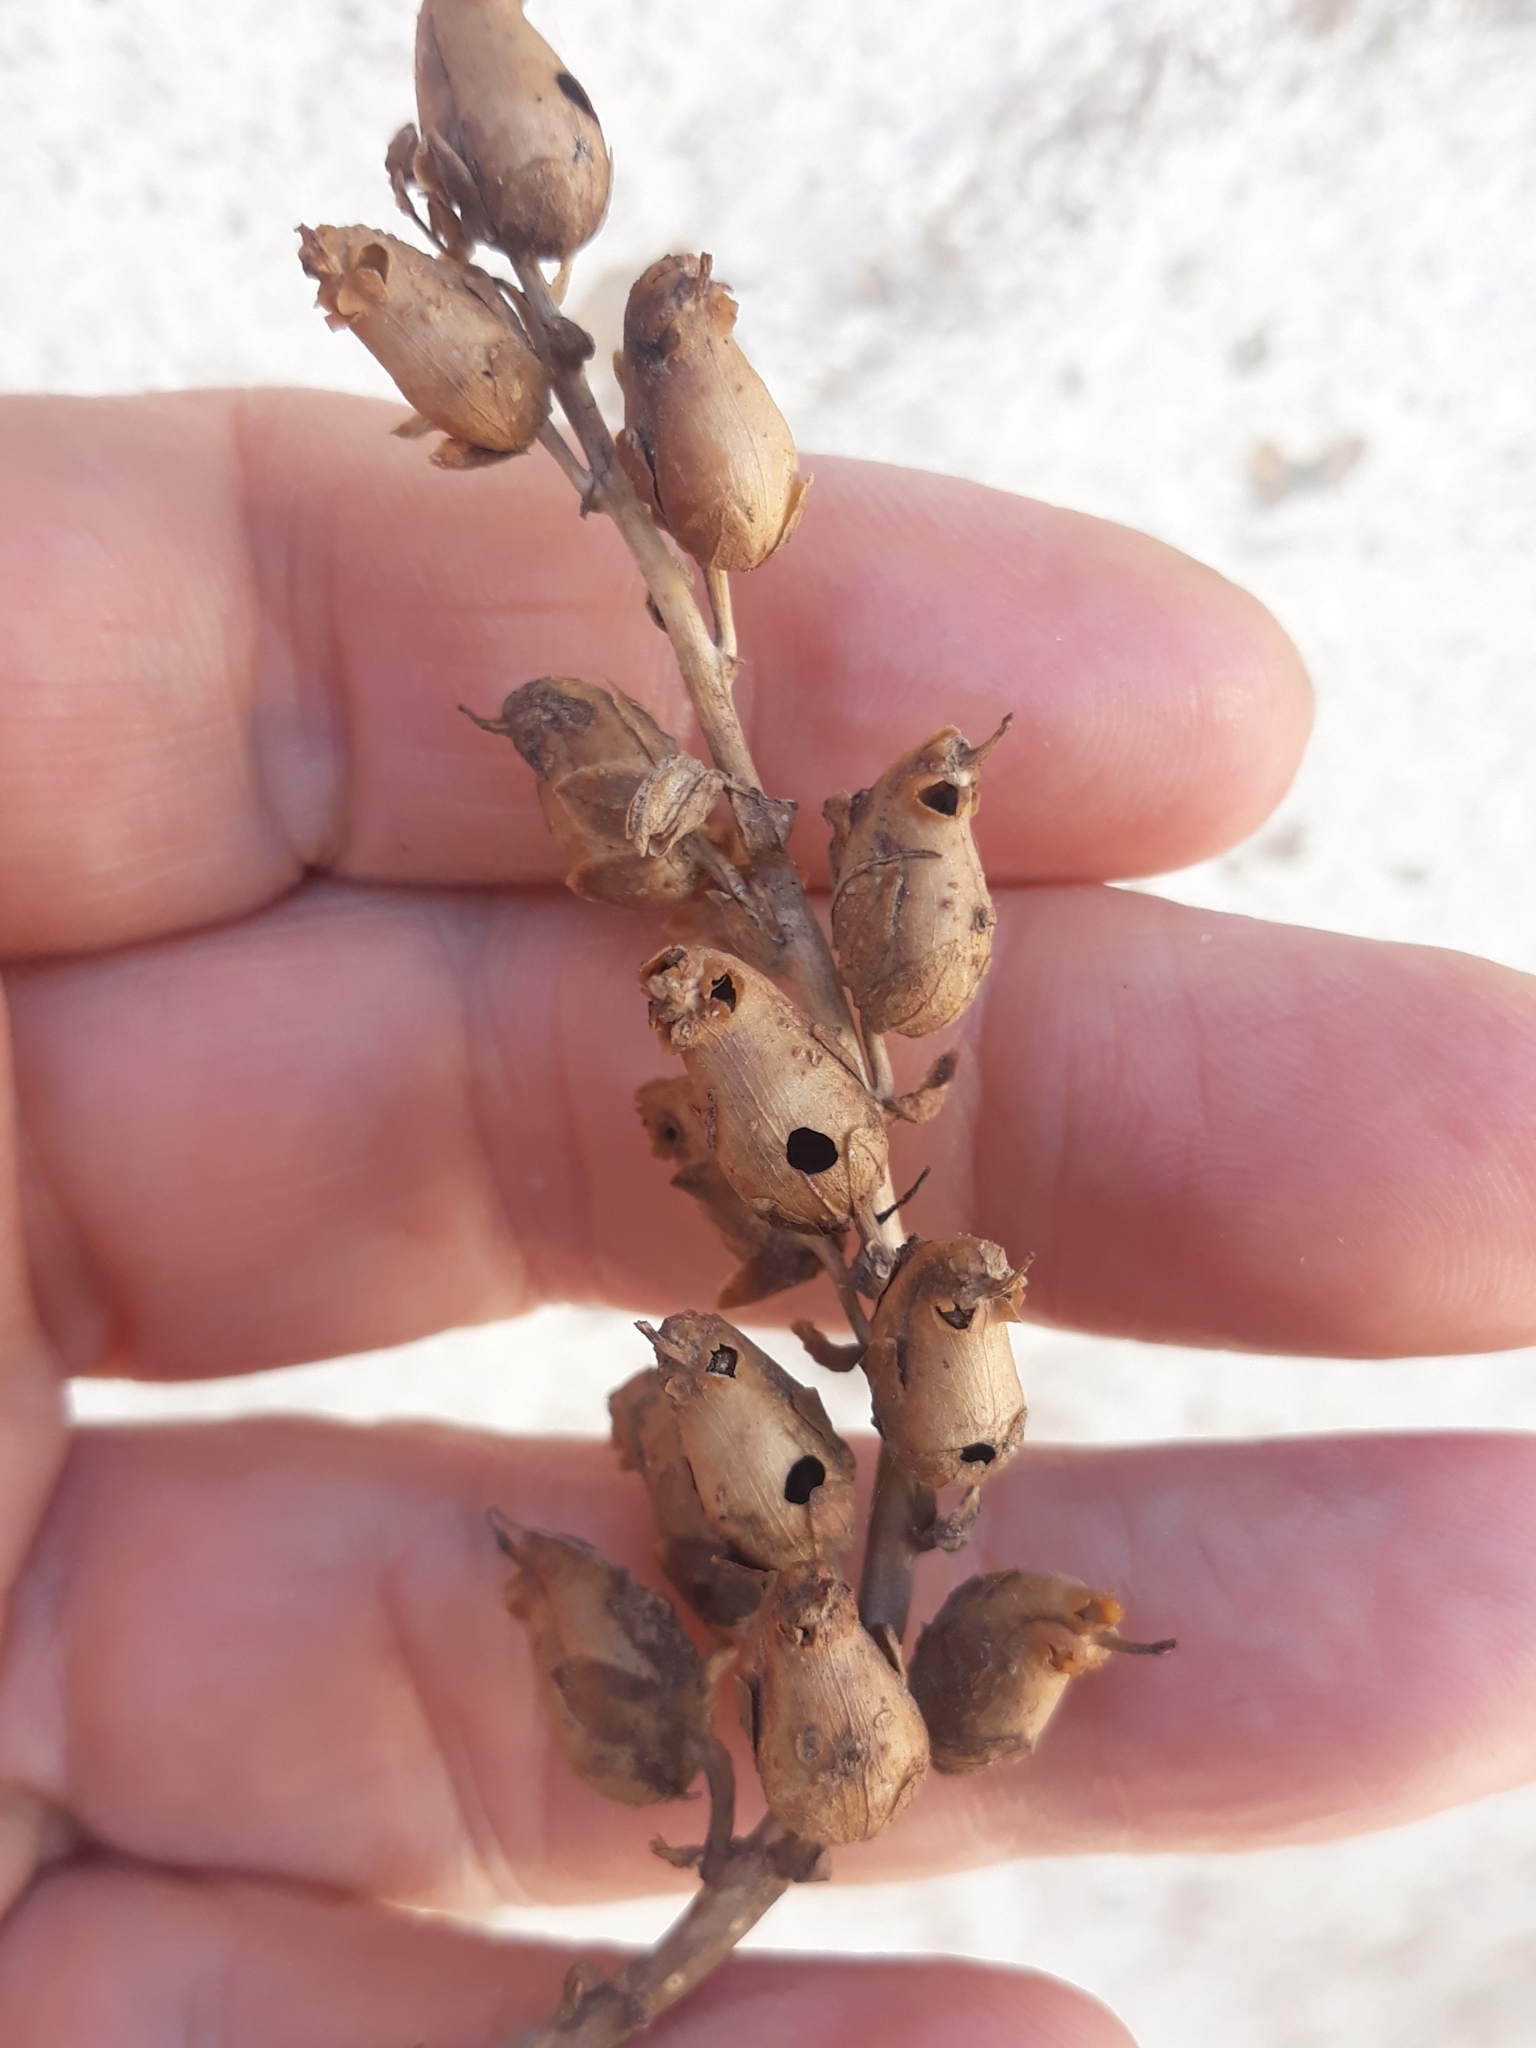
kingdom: Plantae
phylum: Tracheophyta
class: Magnoliopsida
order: Lamiales
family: Plantaginaceae
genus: Antirrhinum
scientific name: Antirrhinum tortuosum
